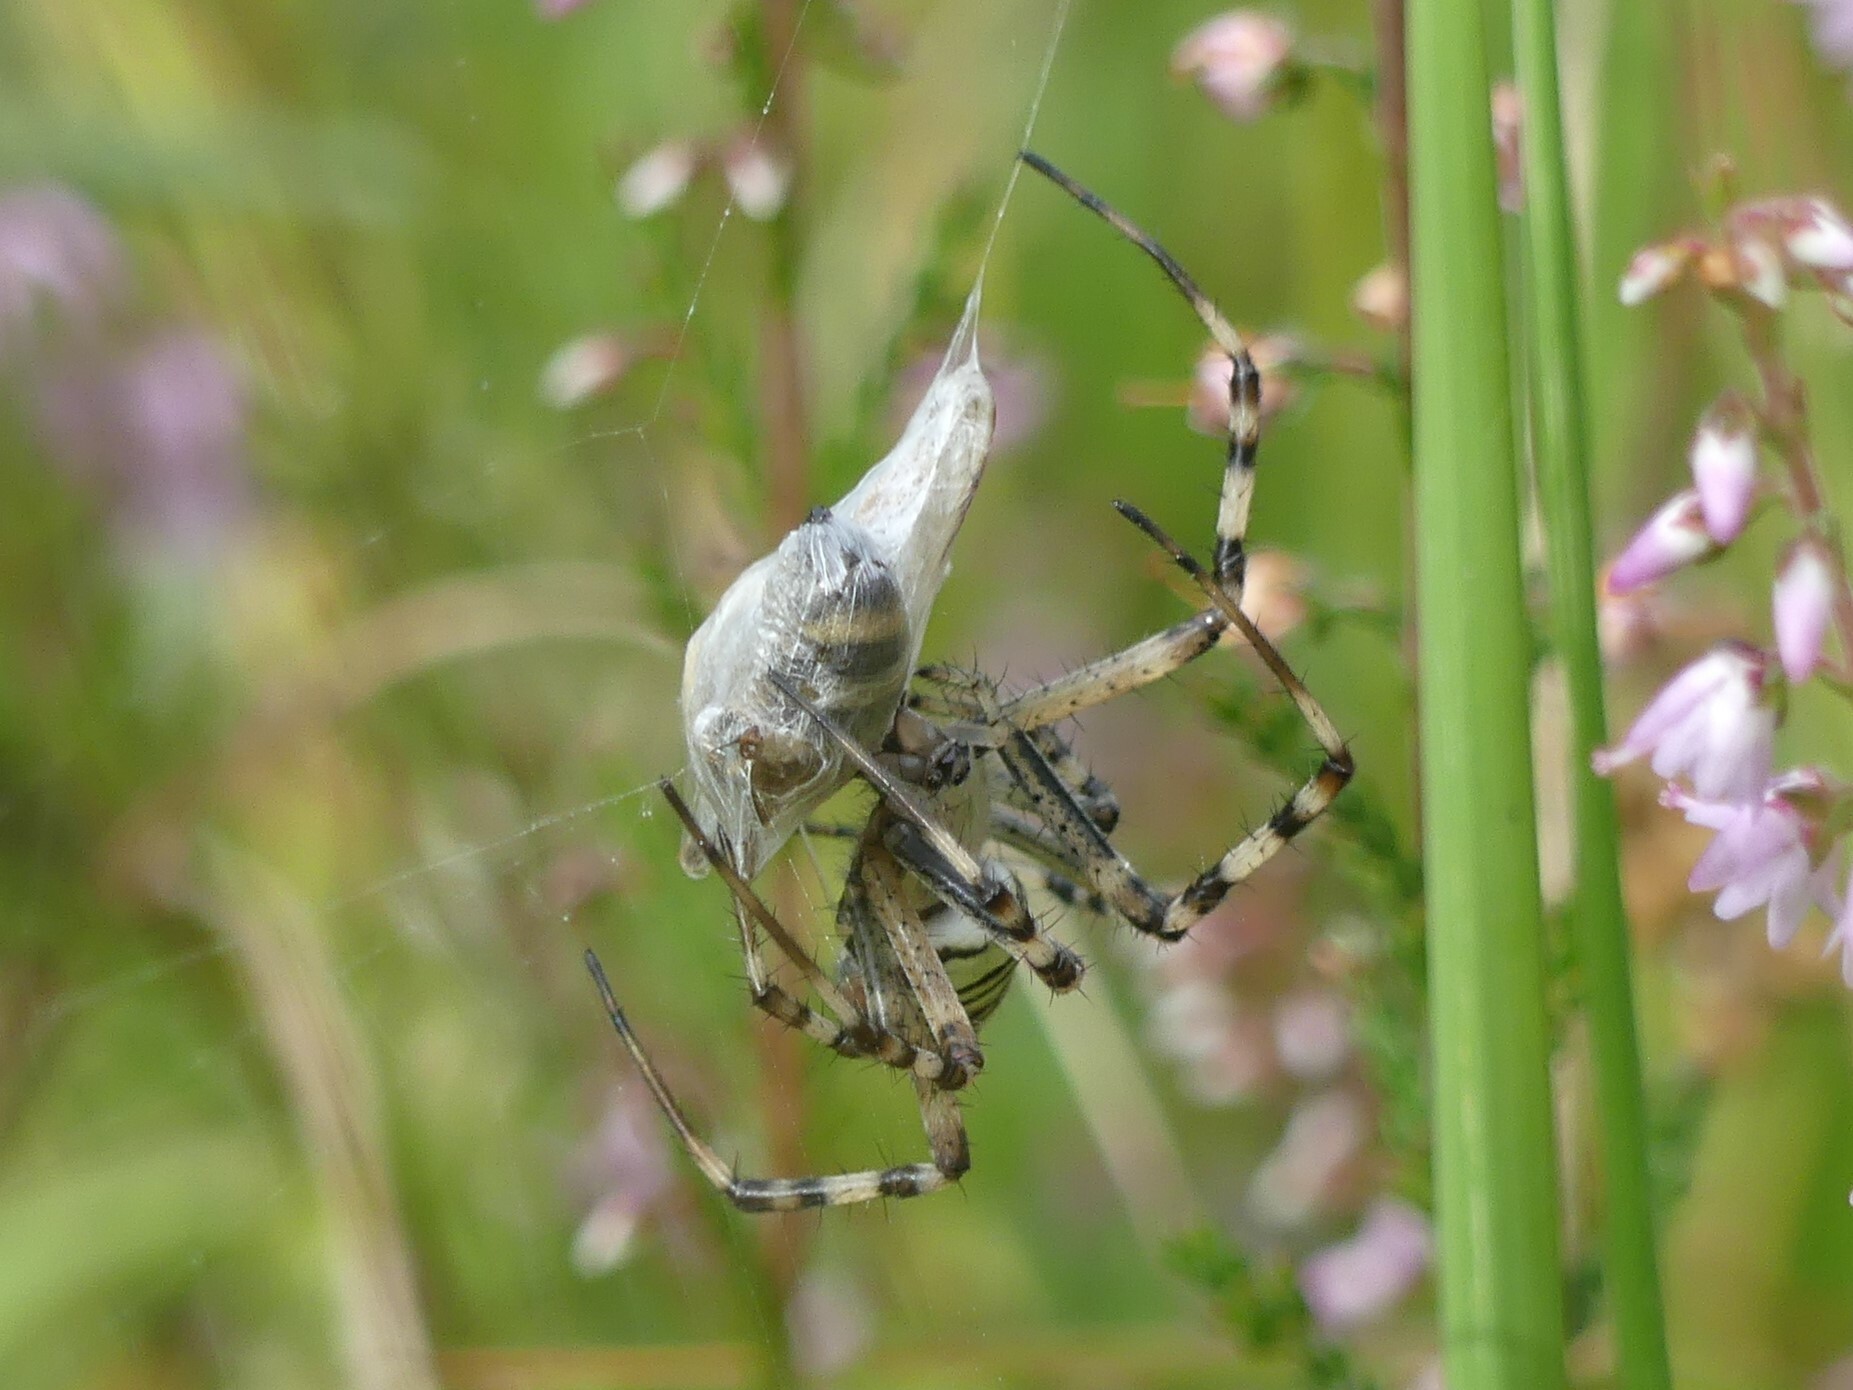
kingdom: Animalia
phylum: Arthropoda
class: Arachnida
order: Araneae
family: Araneidae
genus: Argiope
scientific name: Argiope bruennichi
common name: Wasp spider
